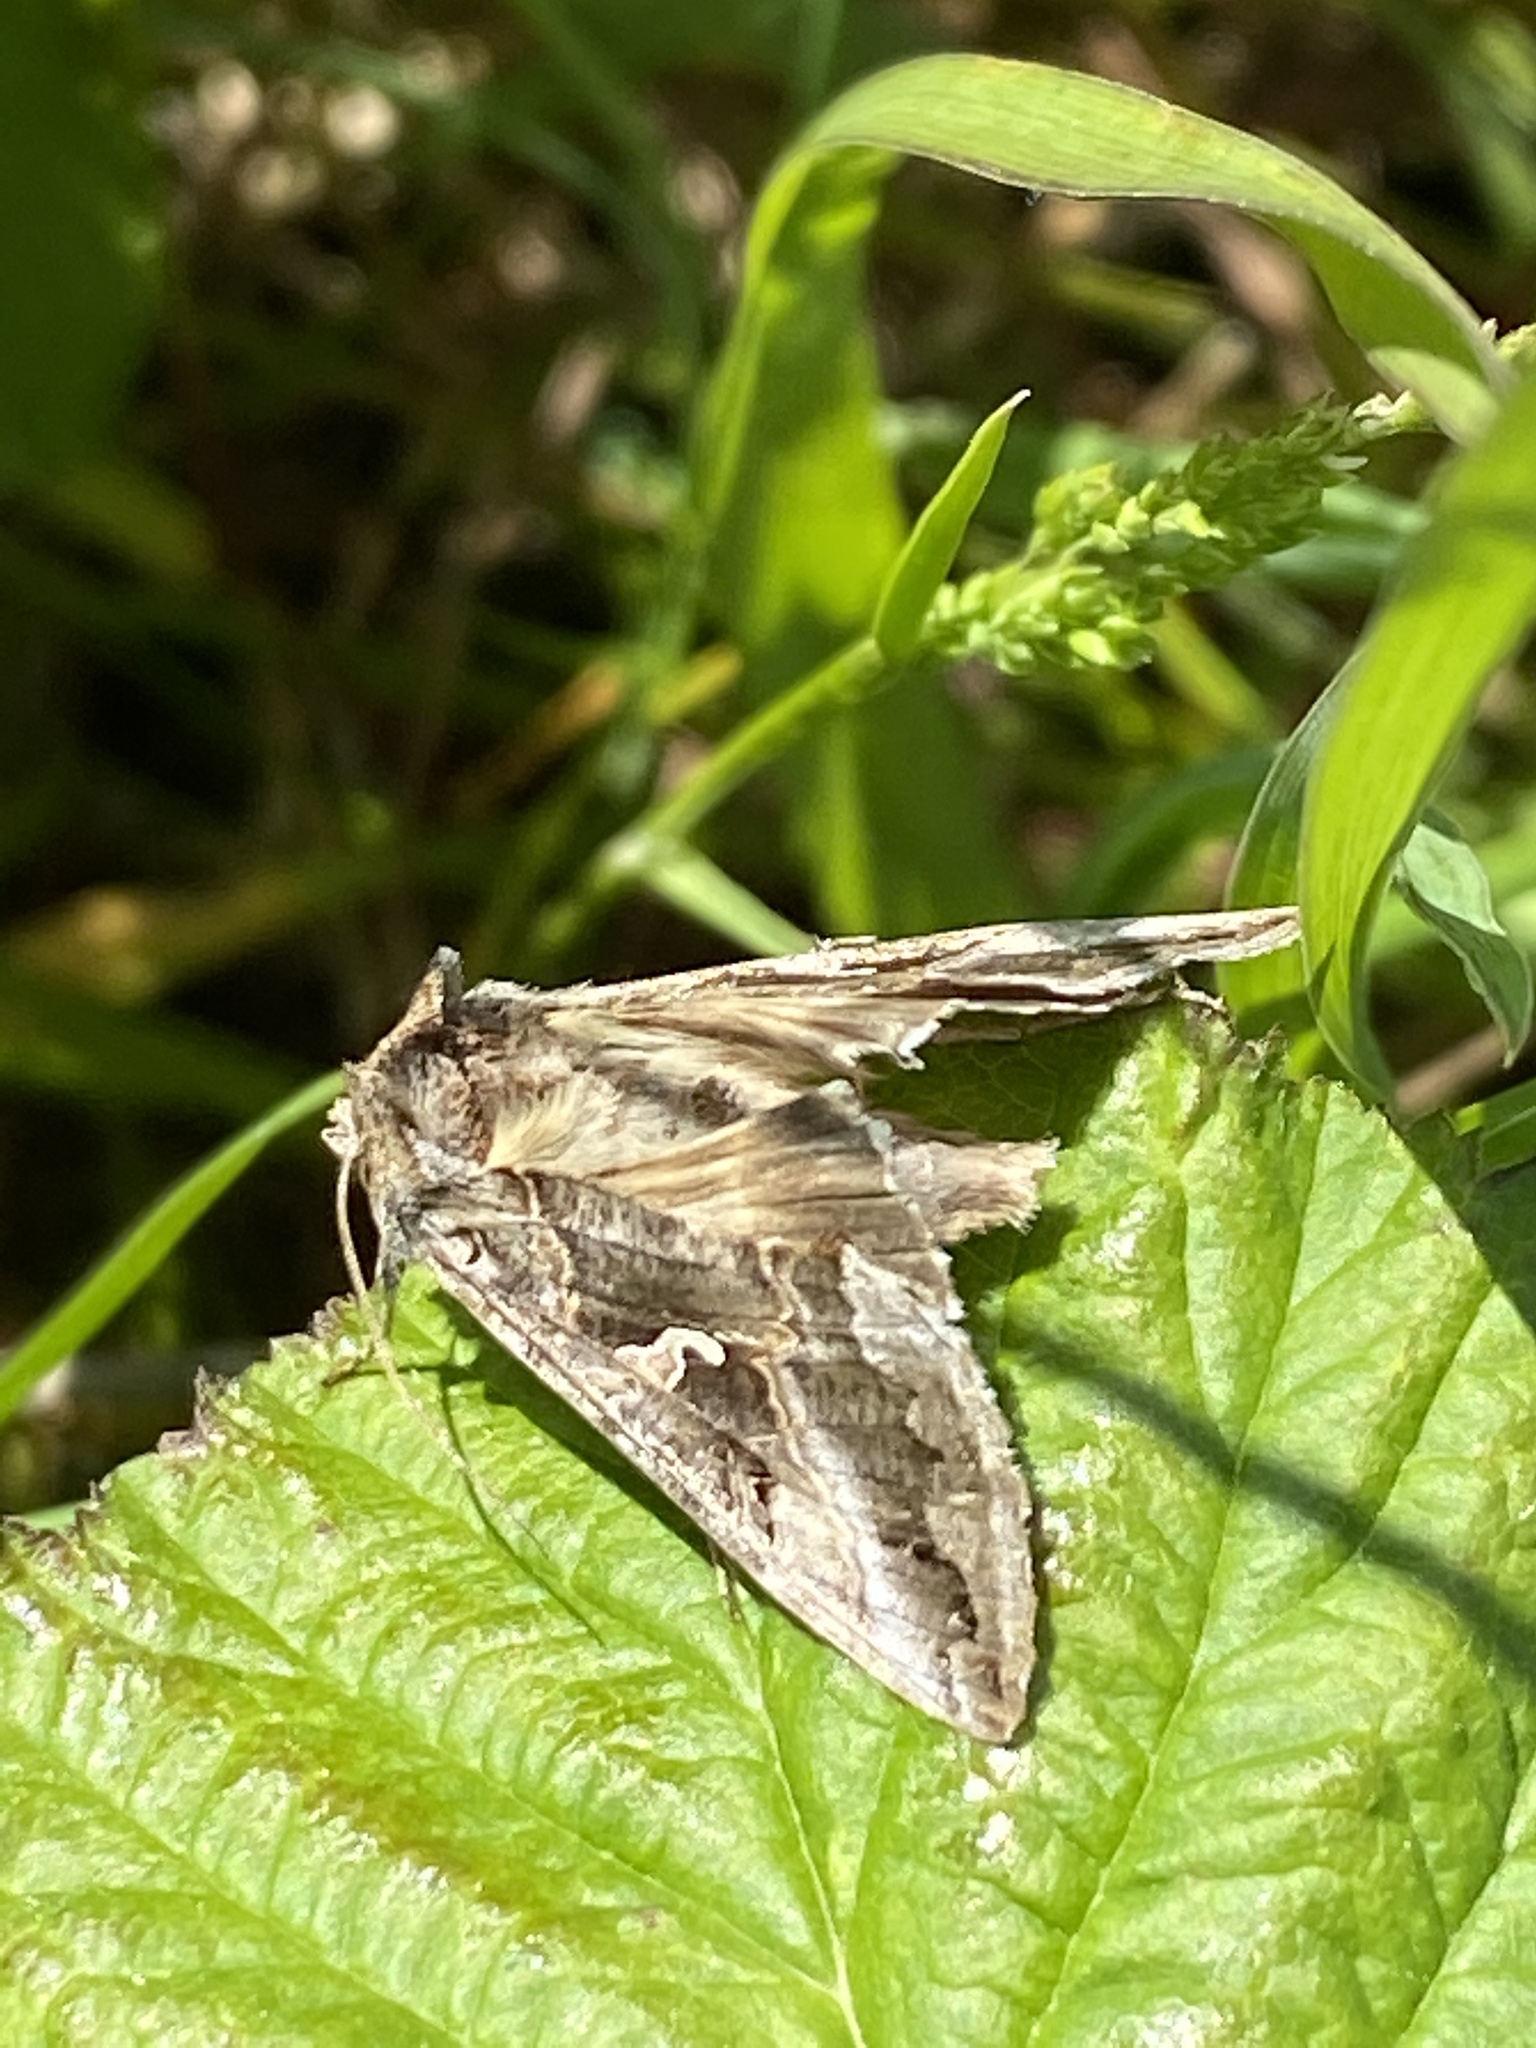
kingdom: Animalia
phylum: Arthropoda
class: Insecta
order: Lepidoptera
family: Noctuidae
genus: Autographa
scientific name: Autographa gamma
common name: Silver y
